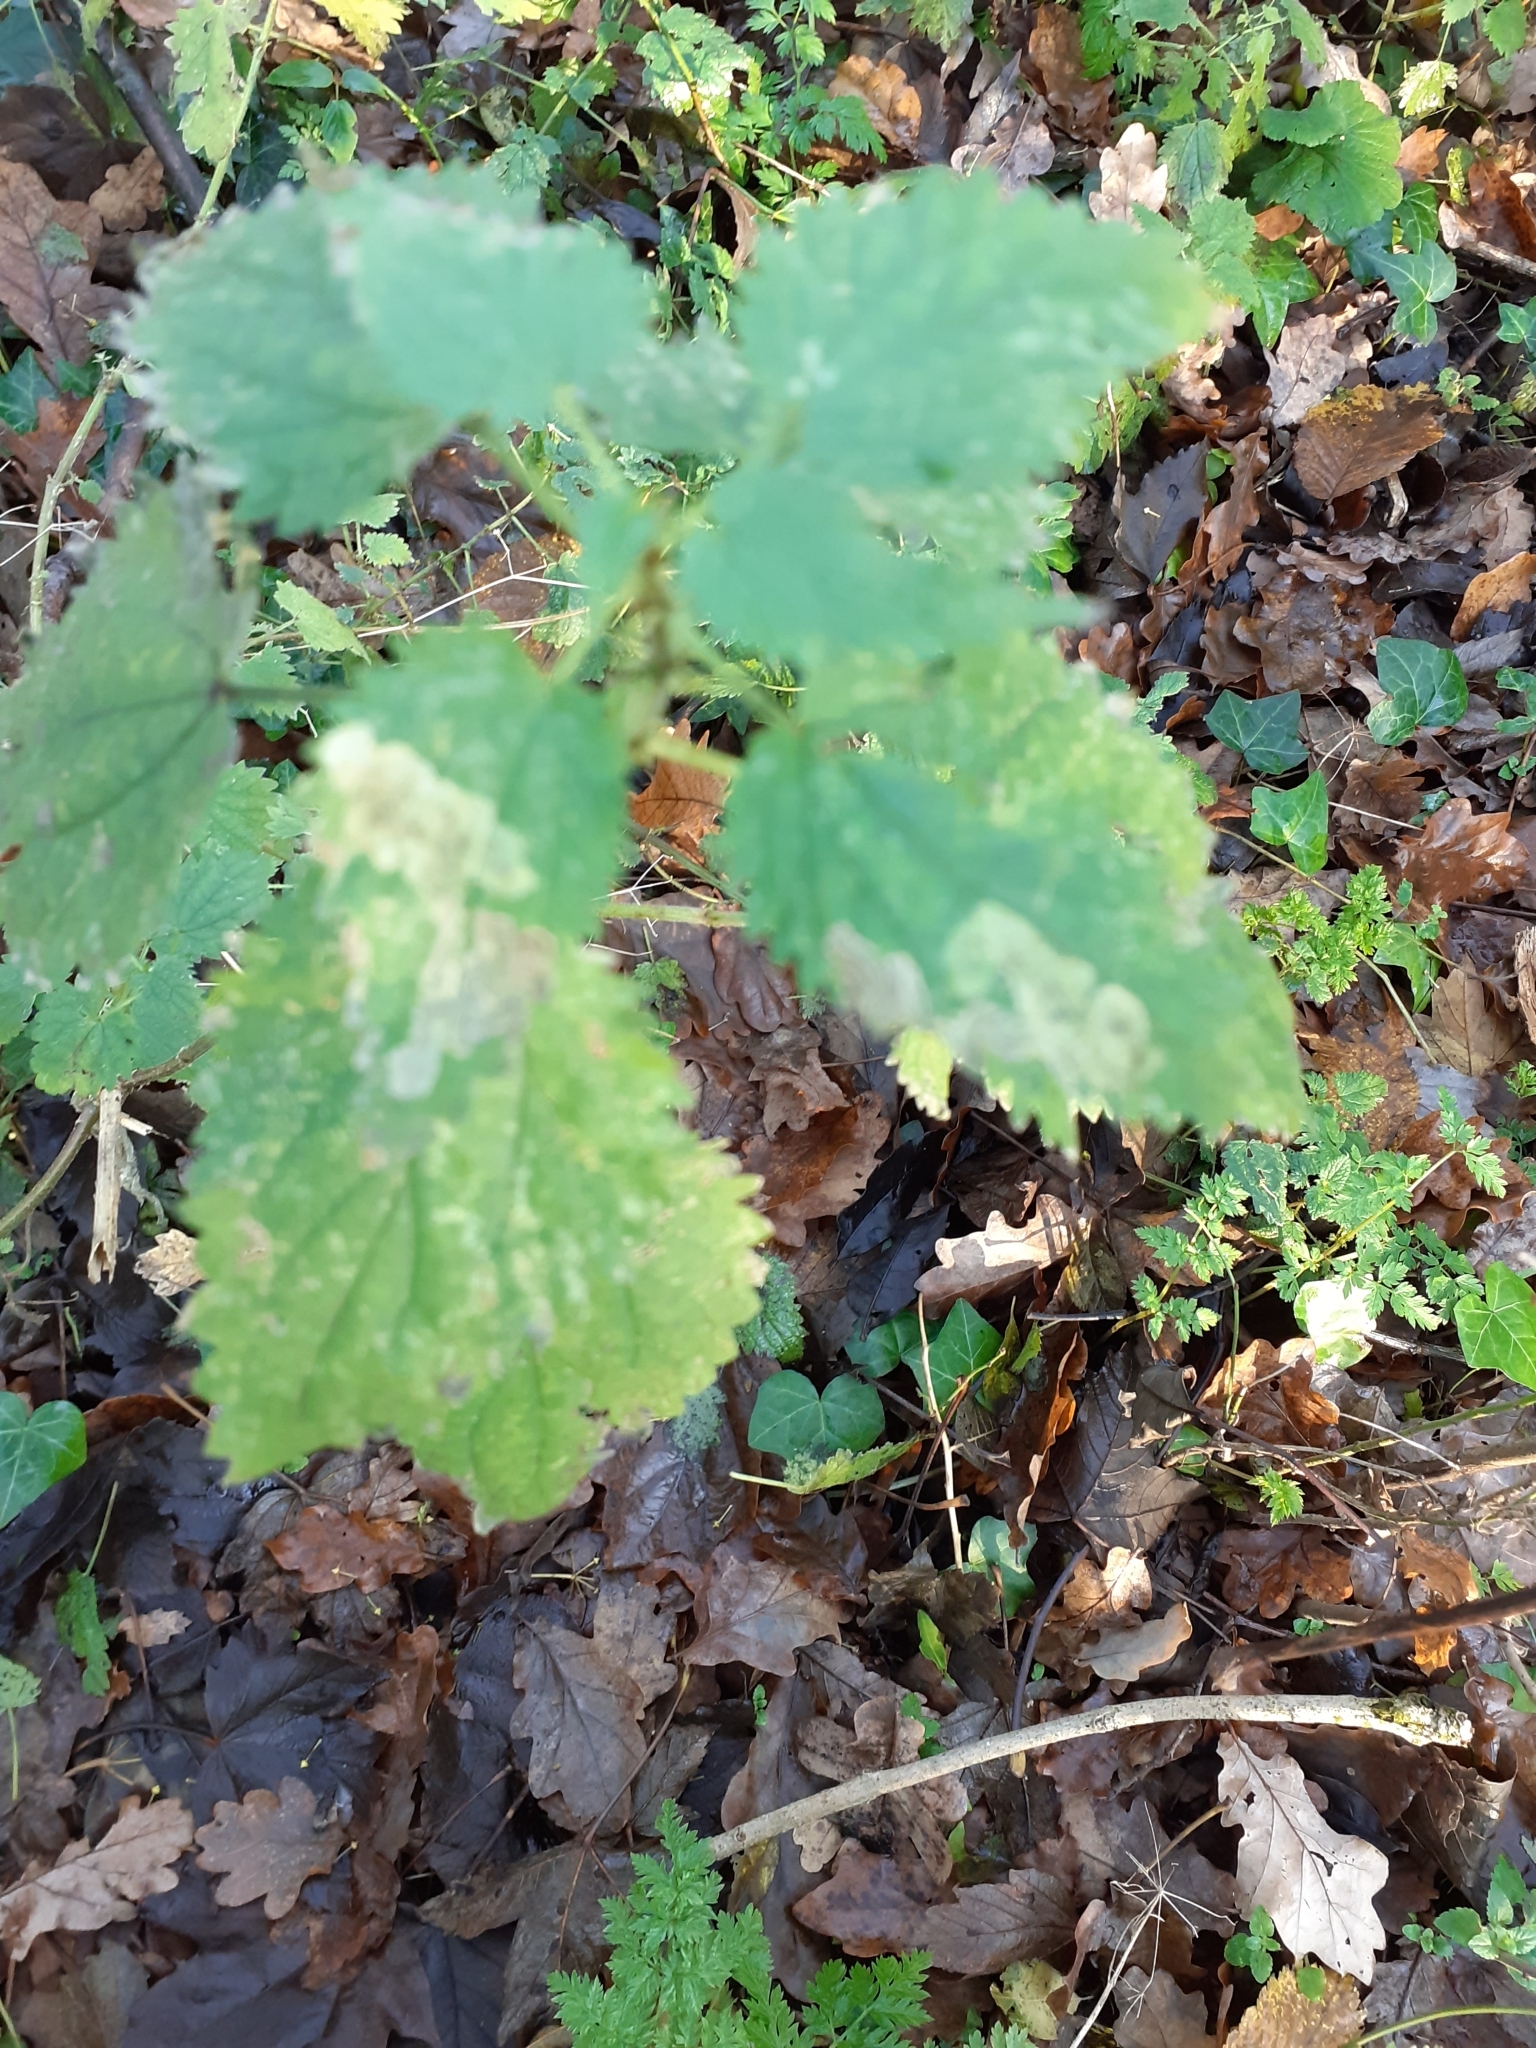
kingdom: Animalia
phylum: Arthropoda
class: Insecta
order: Diptera
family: Agromyzidae
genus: Agromyza
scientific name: Agromyza anthracina
